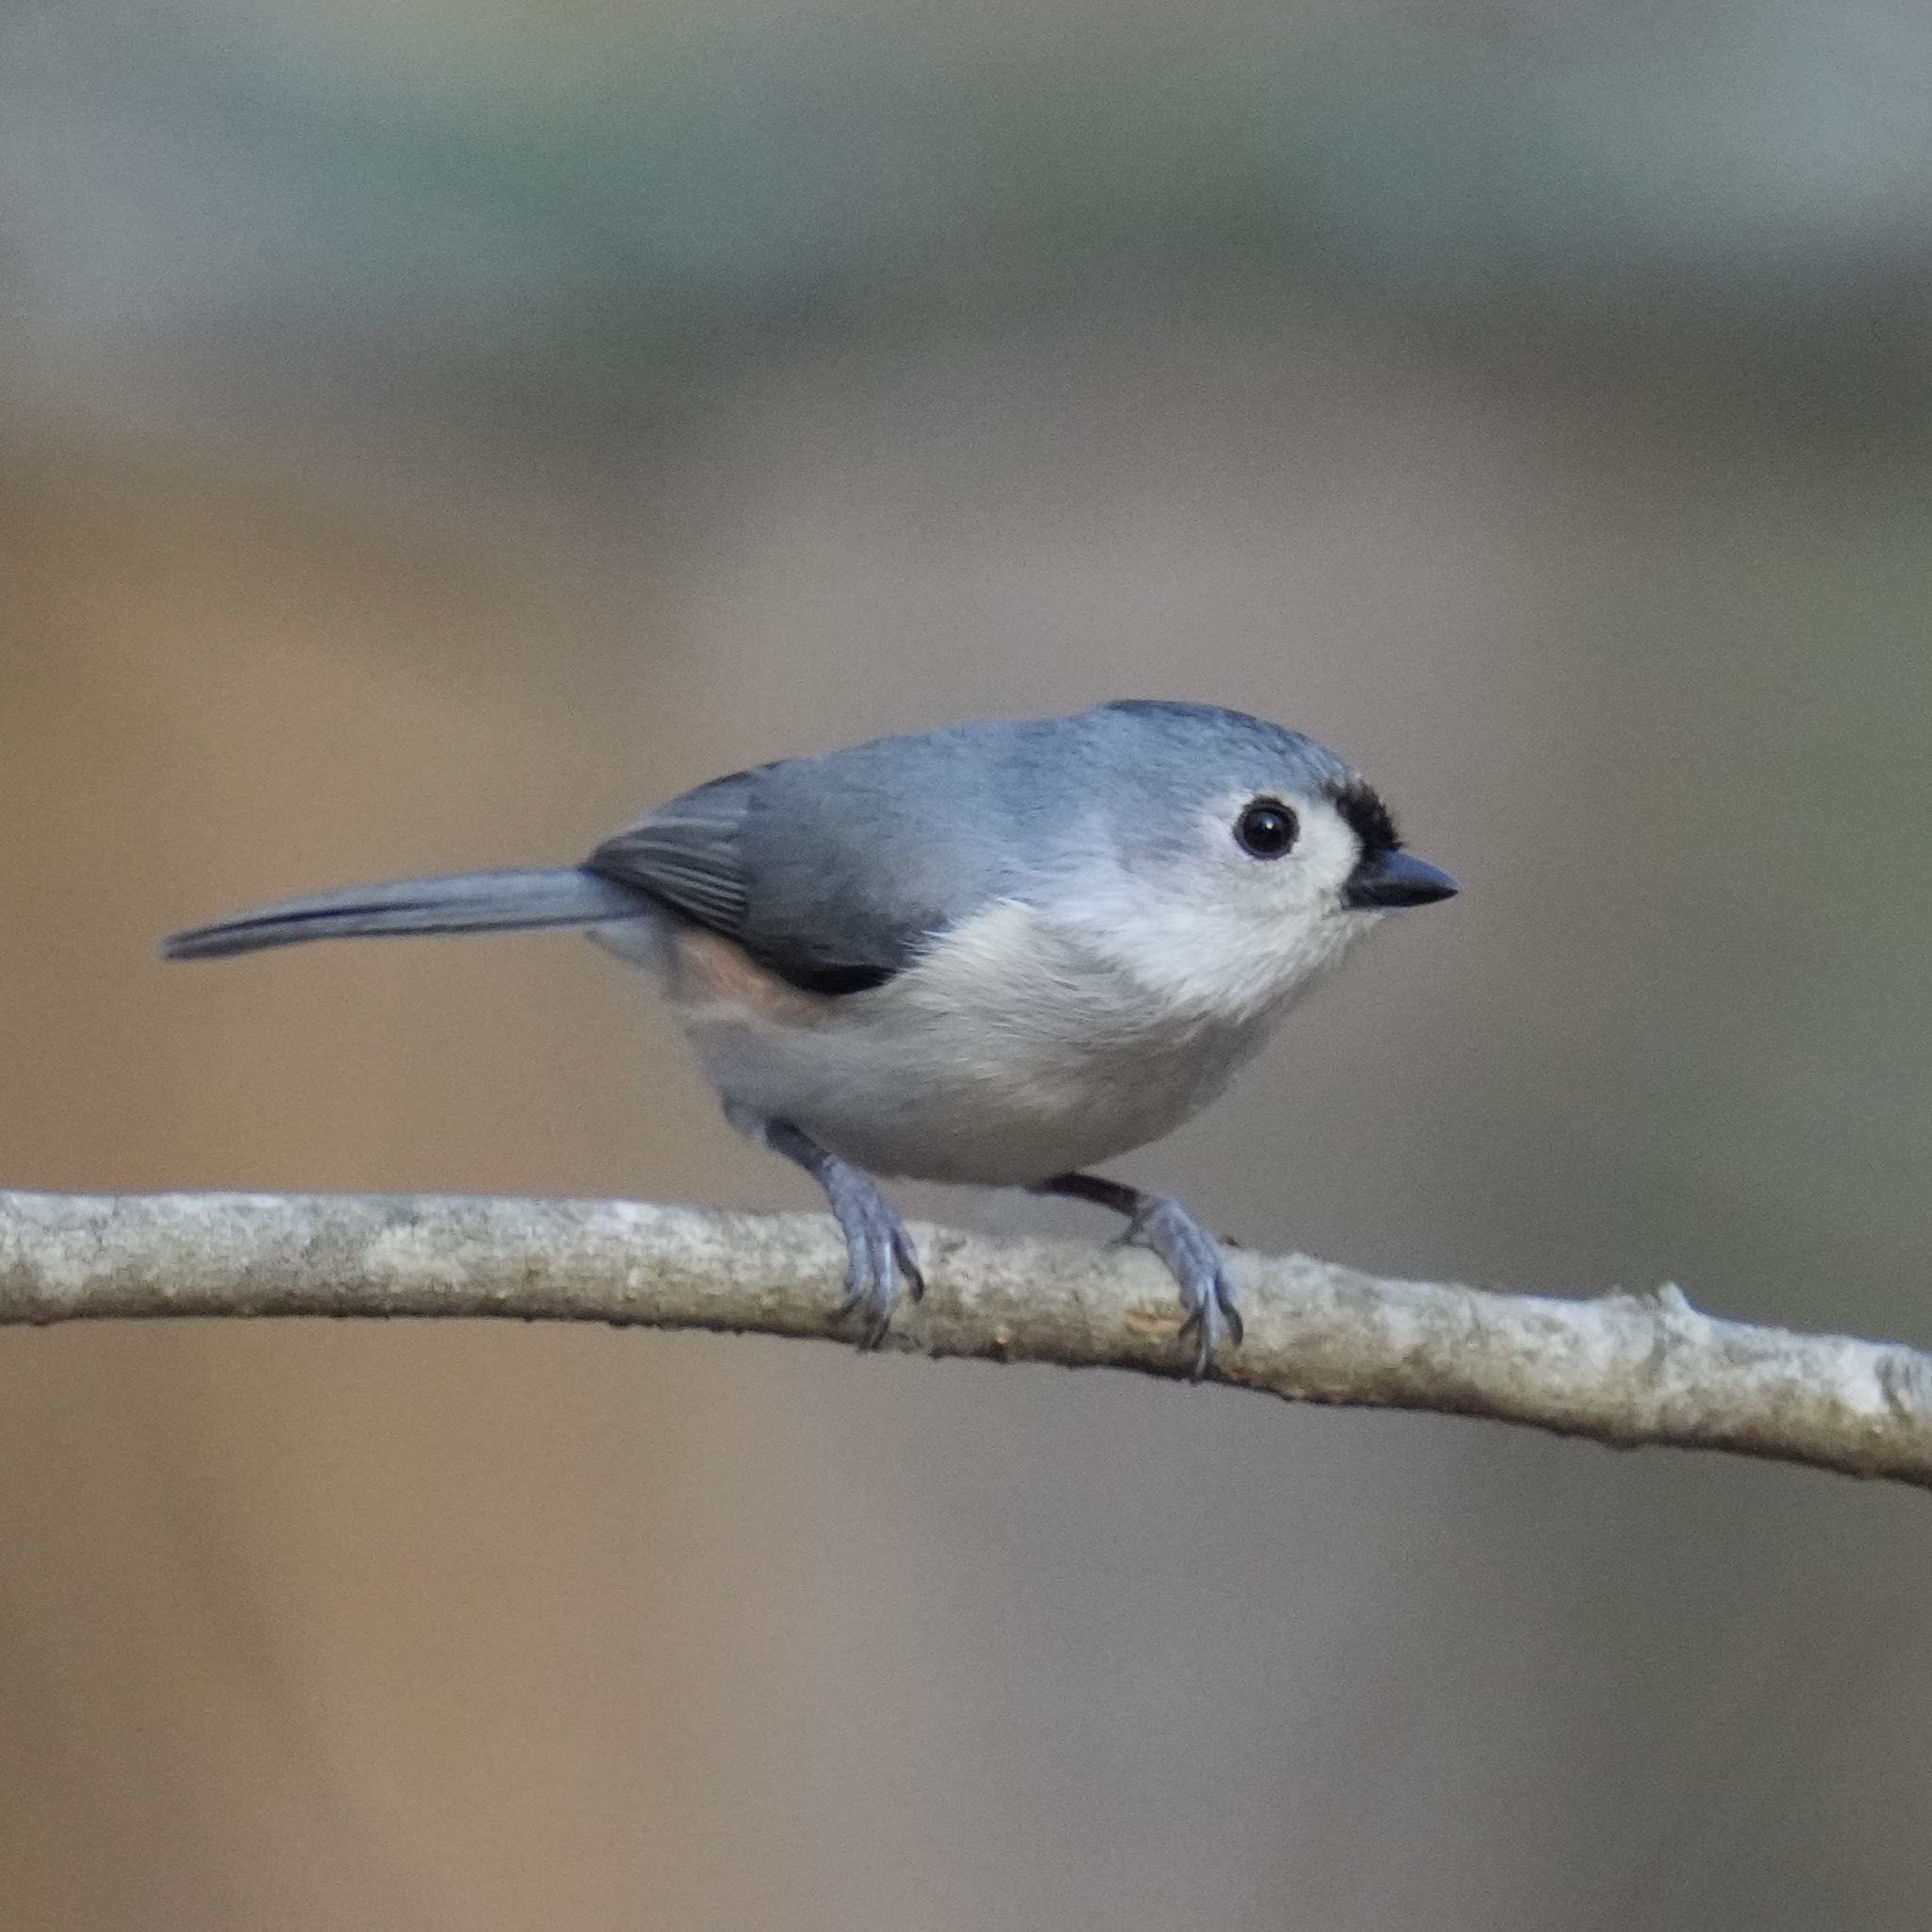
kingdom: Animalia
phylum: Chordata
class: Aves
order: Passeriformes
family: Paridae
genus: Baeolophus
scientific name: Baeolophus bicolor
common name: Tufted titmouse
